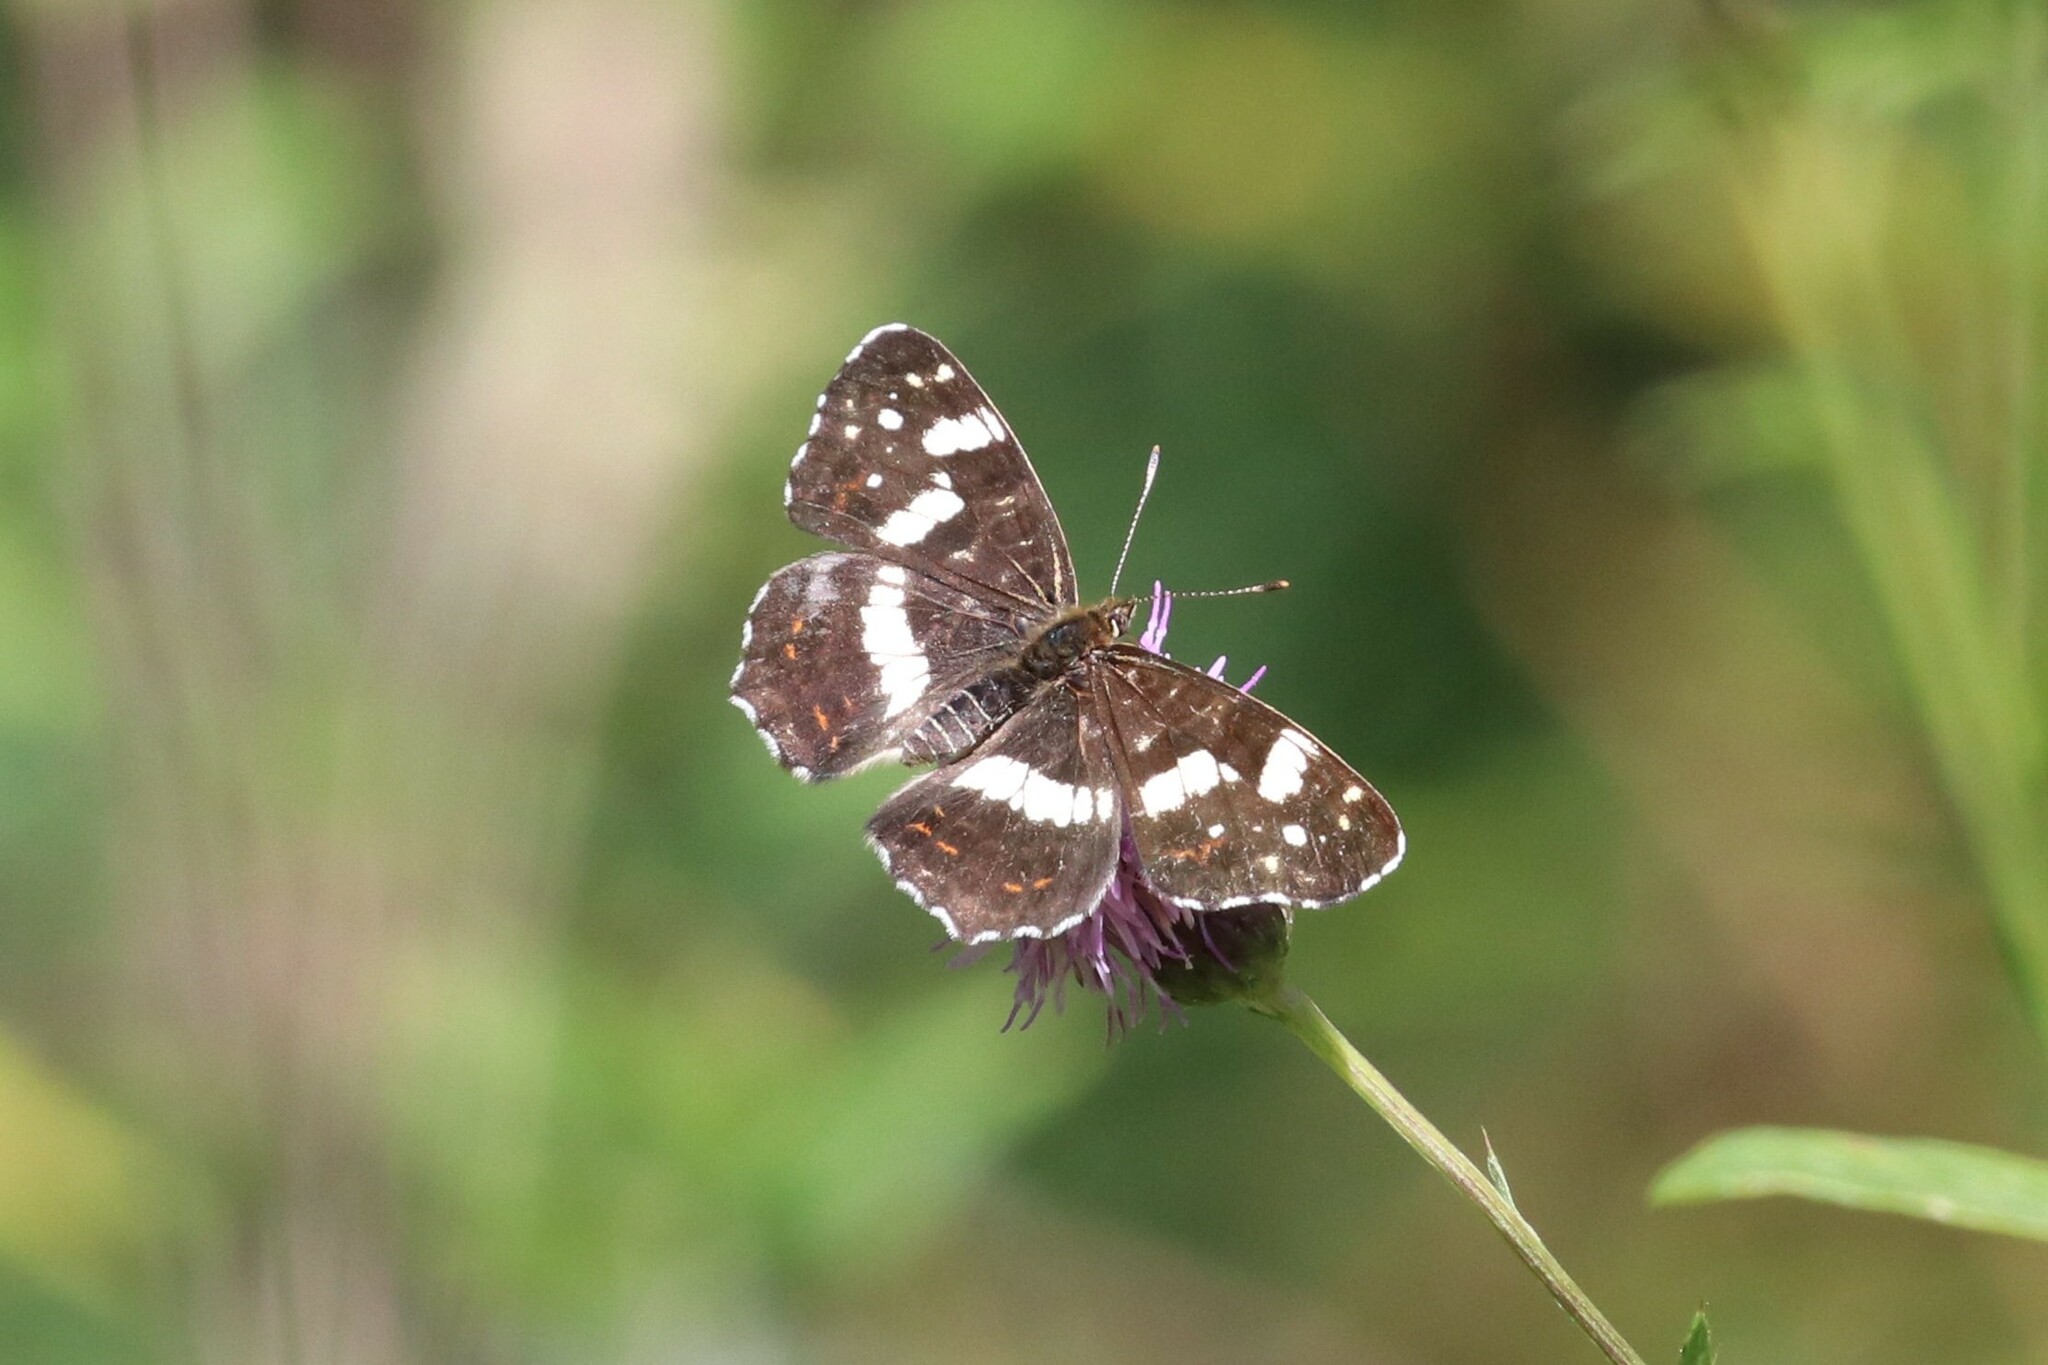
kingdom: Animalia
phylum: Arthropoda
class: Insecta
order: Lepidoptera
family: Nymphalidae
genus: Araschnia
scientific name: Araschnia levana
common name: Map butterfly
